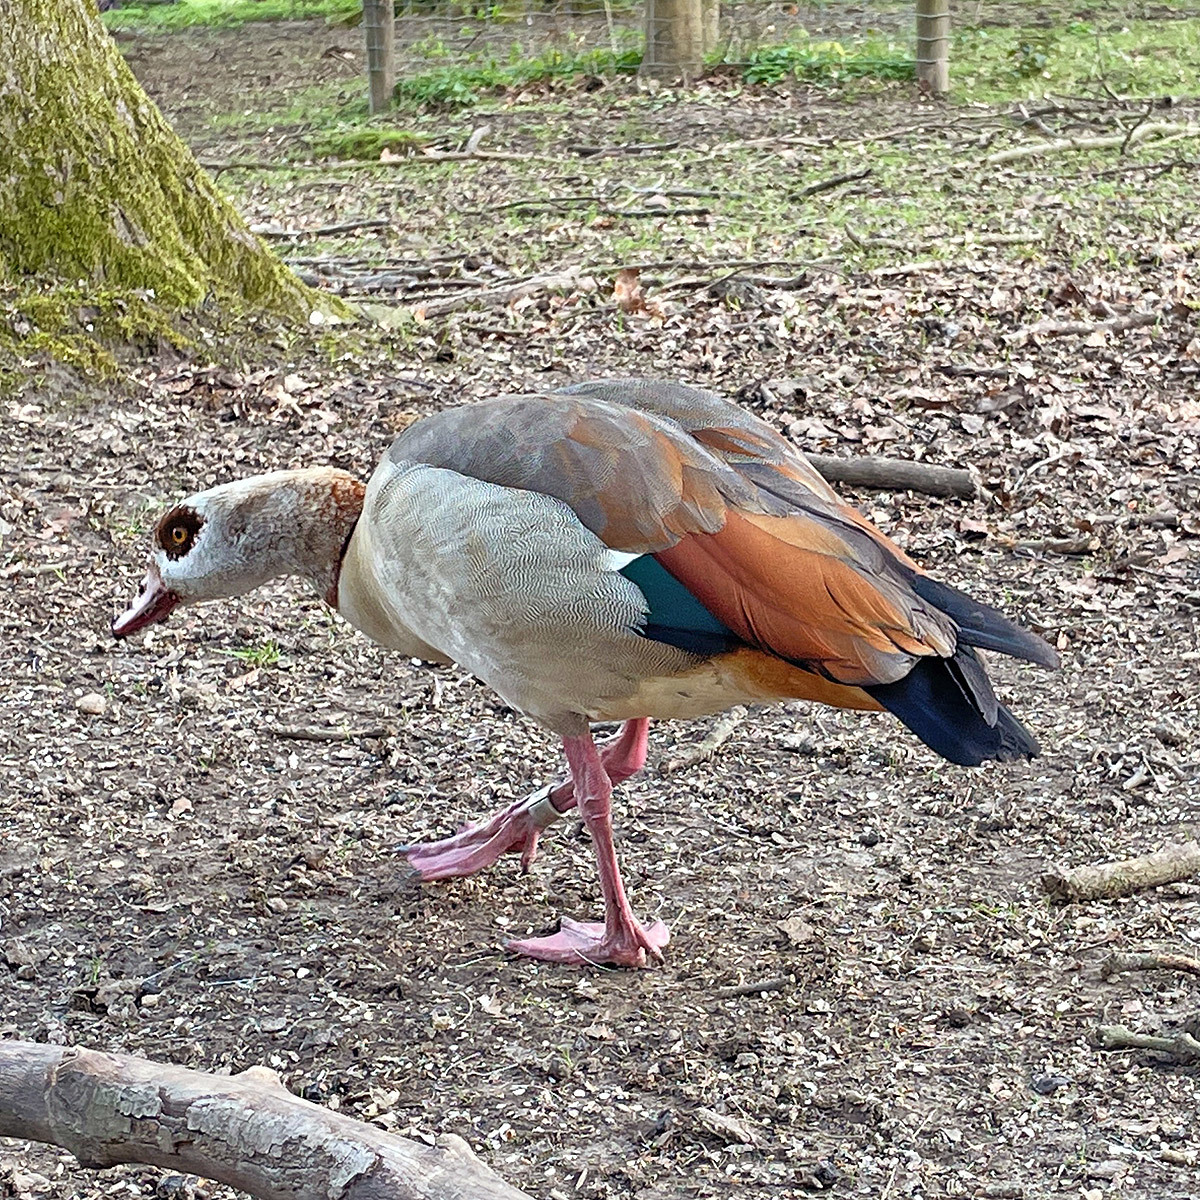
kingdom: Animalia
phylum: Chordata
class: Aves
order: Anseriformes
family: Anatidae
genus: Alopochen
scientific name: Alopochen aegyptiaca
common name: Egyptian goose
